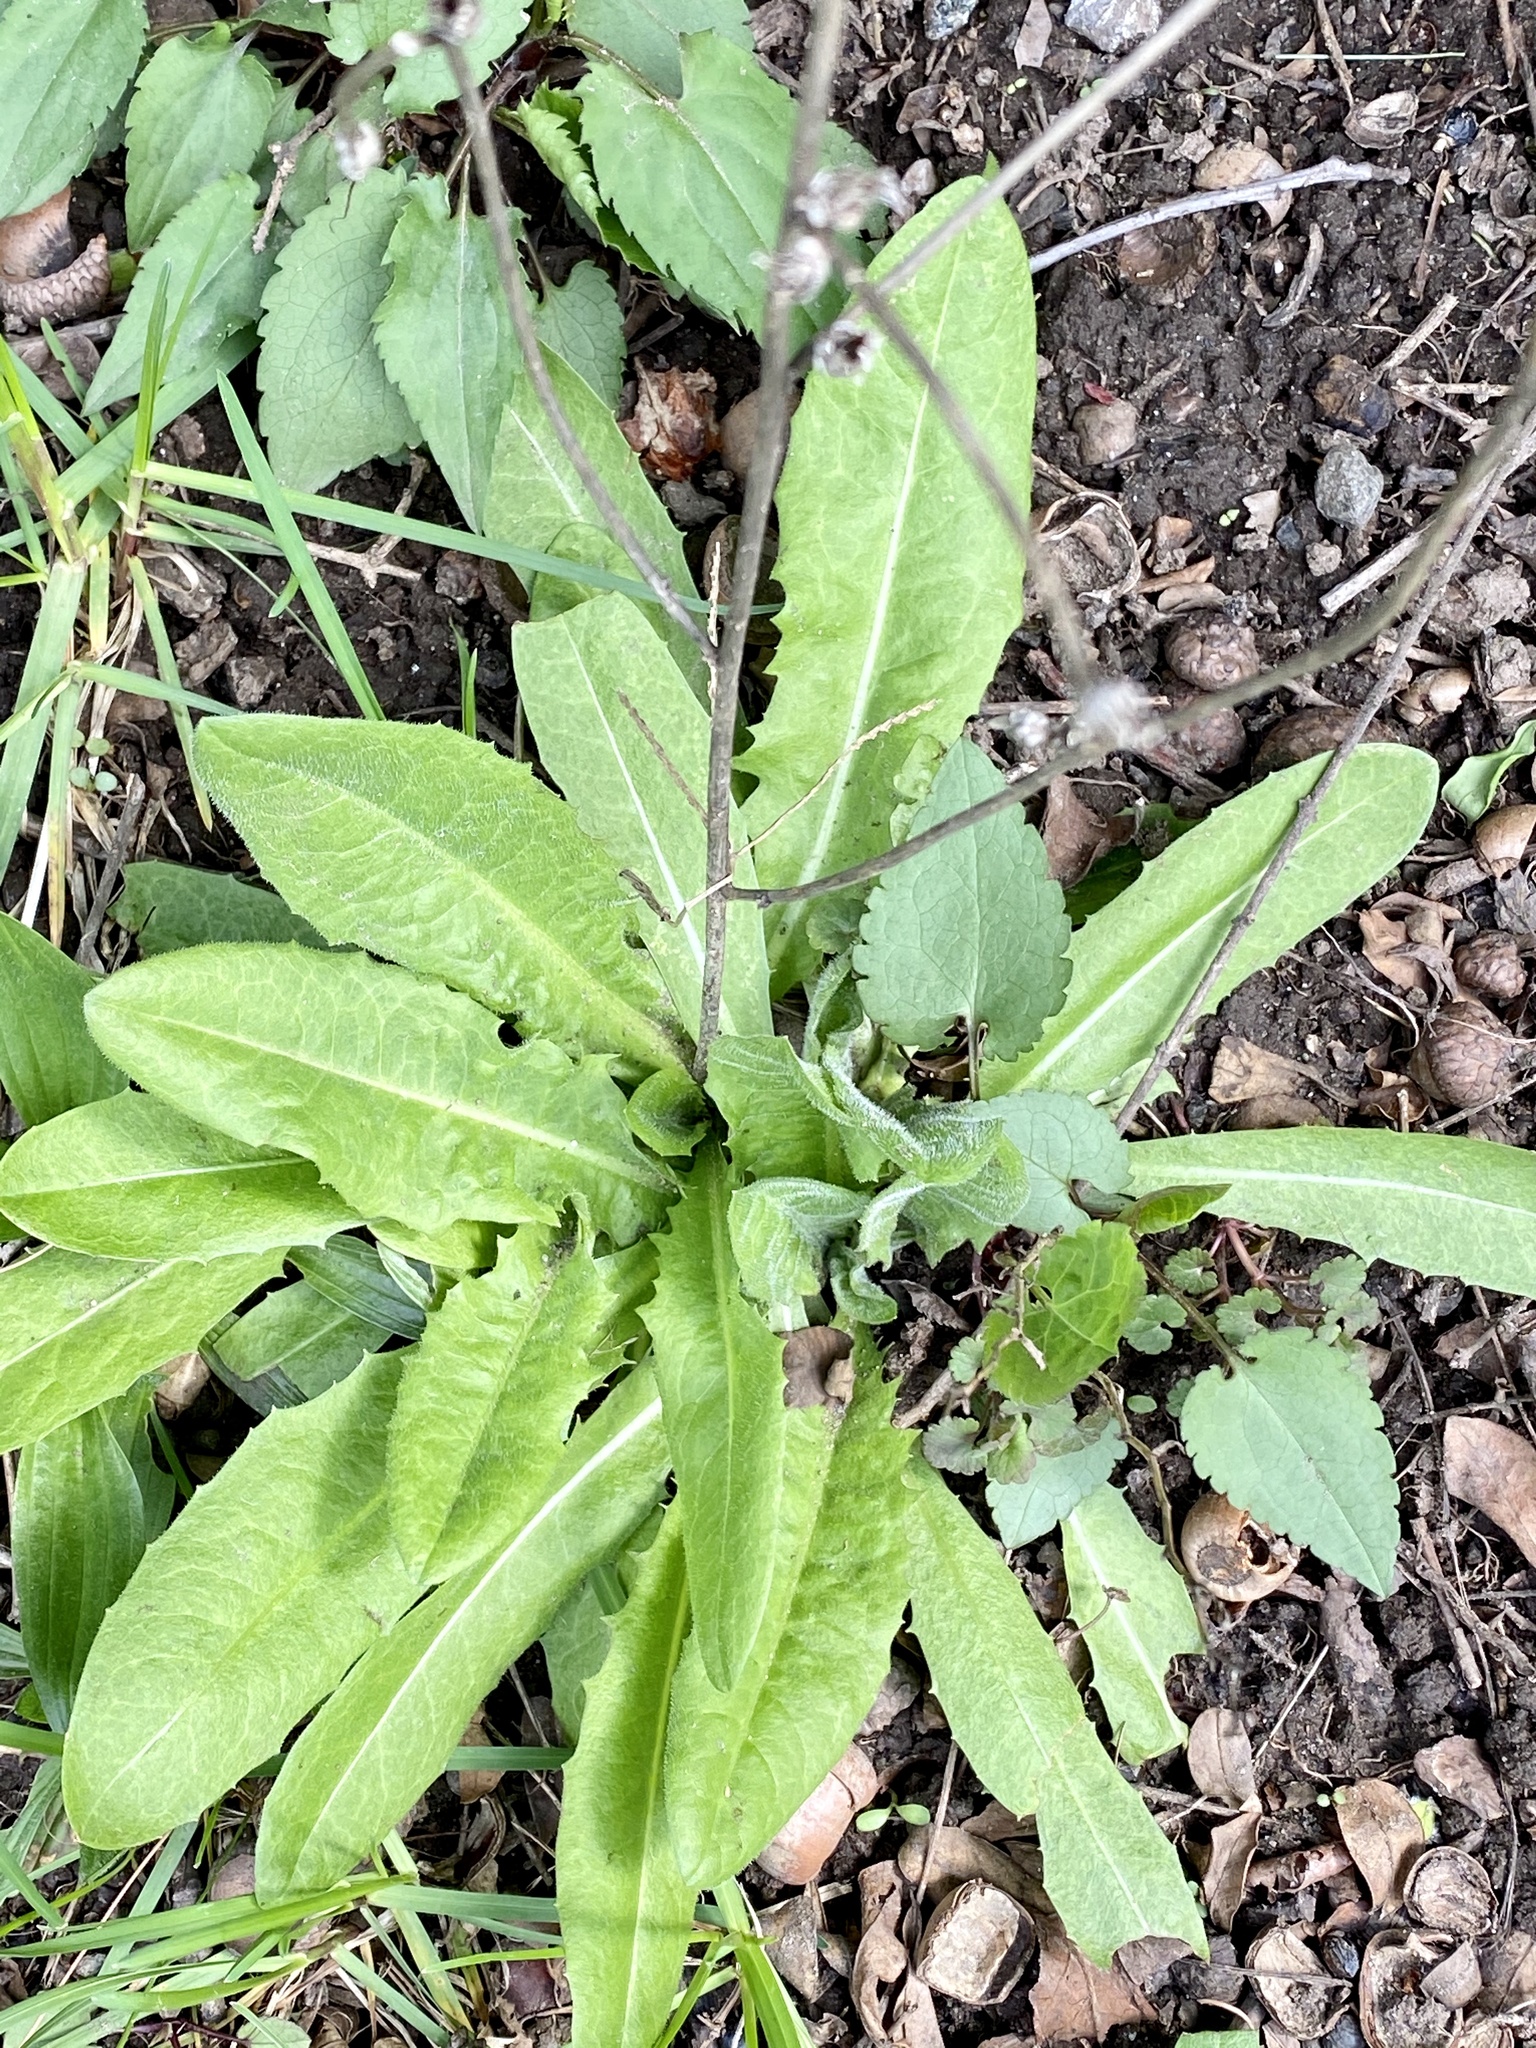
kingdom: Plantae
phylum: Tracheophyta
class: Magnoliopsida
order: Asterales
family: Asteraceae
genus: Cichorium
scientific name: Cichorium intybus
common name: Chicory
